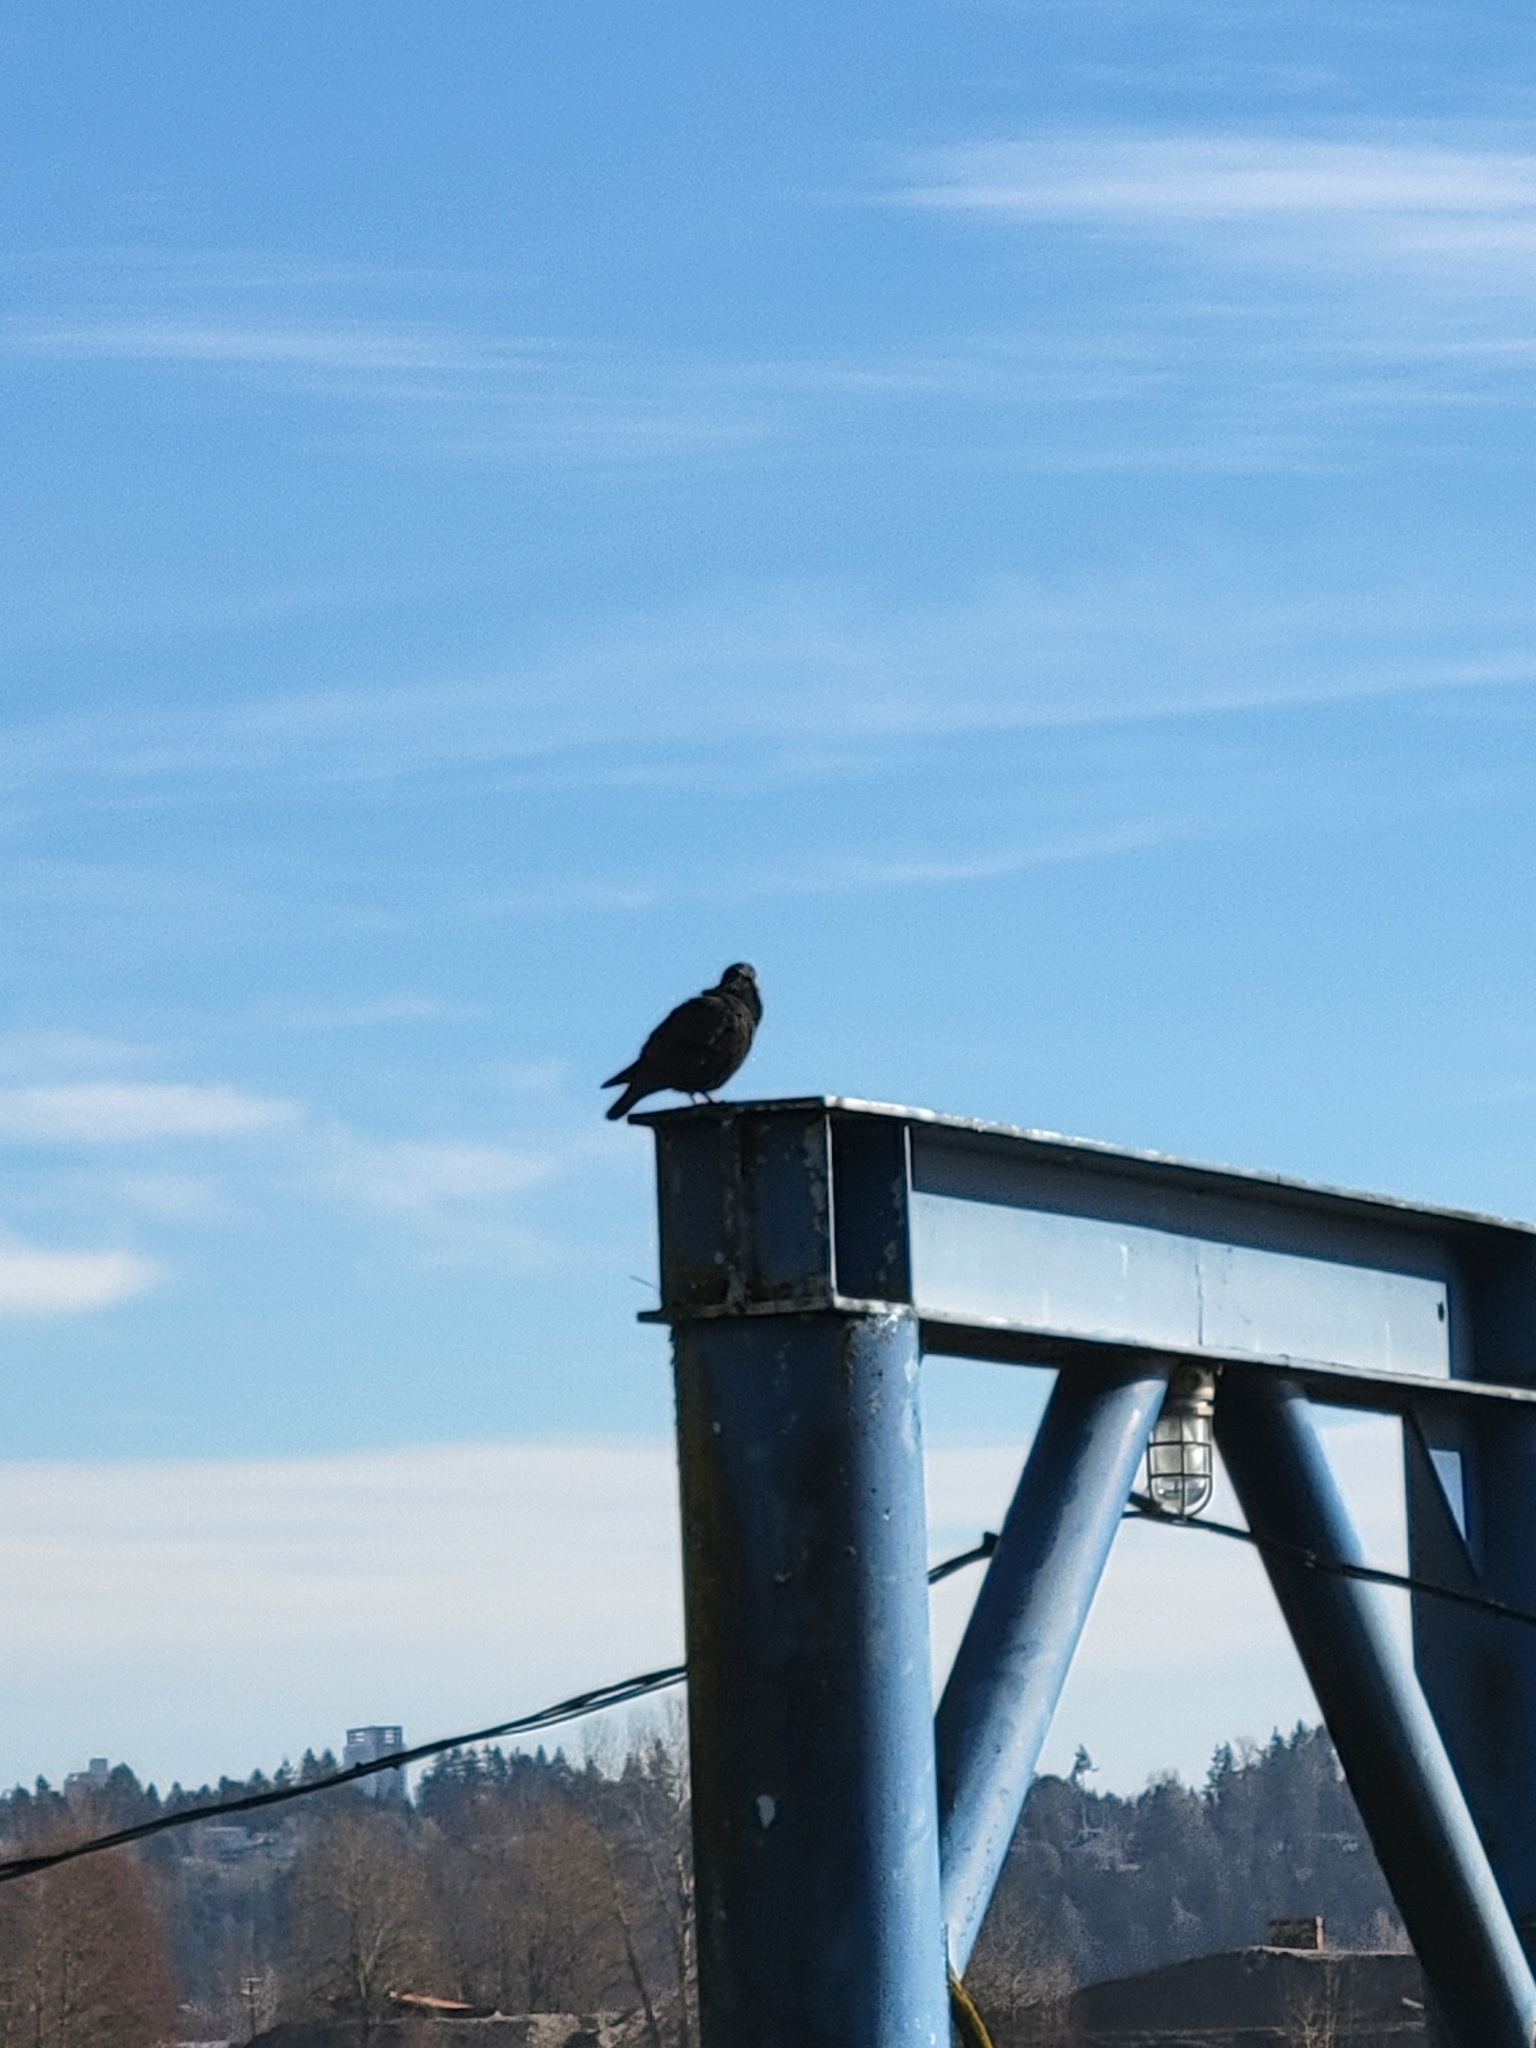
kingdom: Animalia
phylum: Chordata
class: Aves
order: Passeriformes
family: Corvidae
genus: Corvus
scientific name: Corvus brachyrhynchos
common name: American crow
